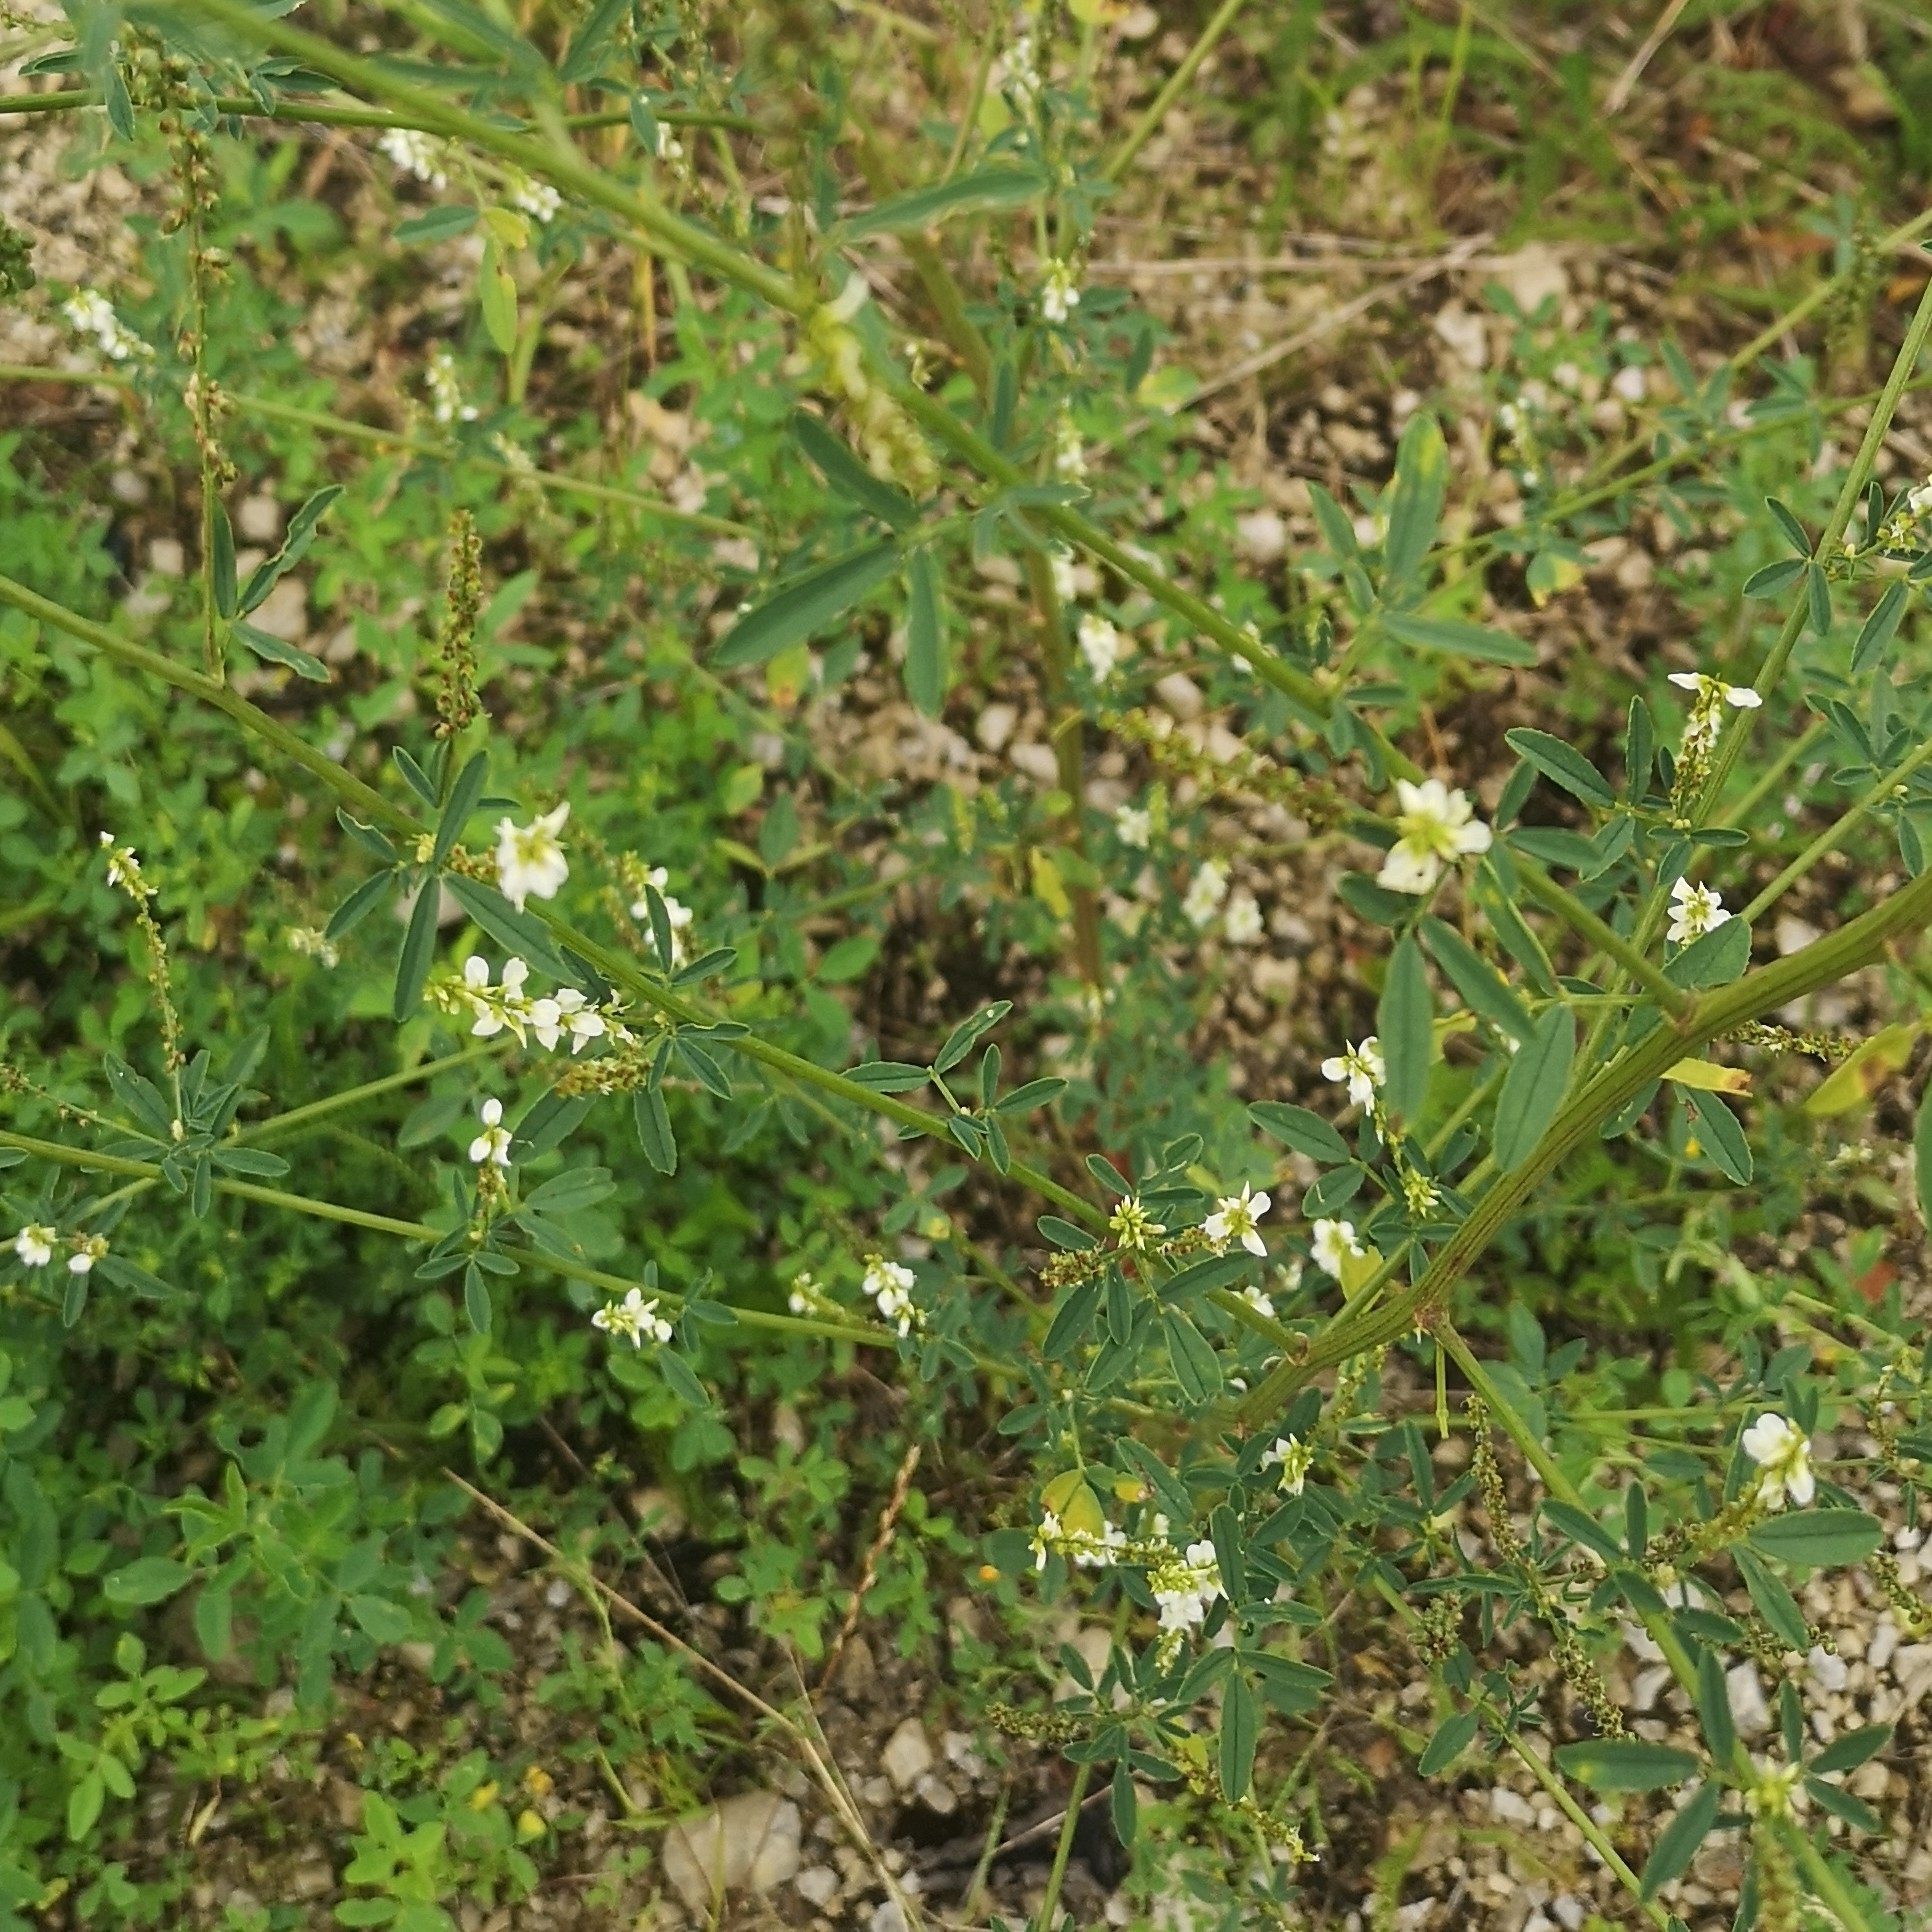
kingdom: Plantae
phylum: Tracheophyta
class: Magnoliopsida
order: Fabales
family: Fabaceae
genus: Melilotus
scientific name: Melilotus albus
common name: White melilot
